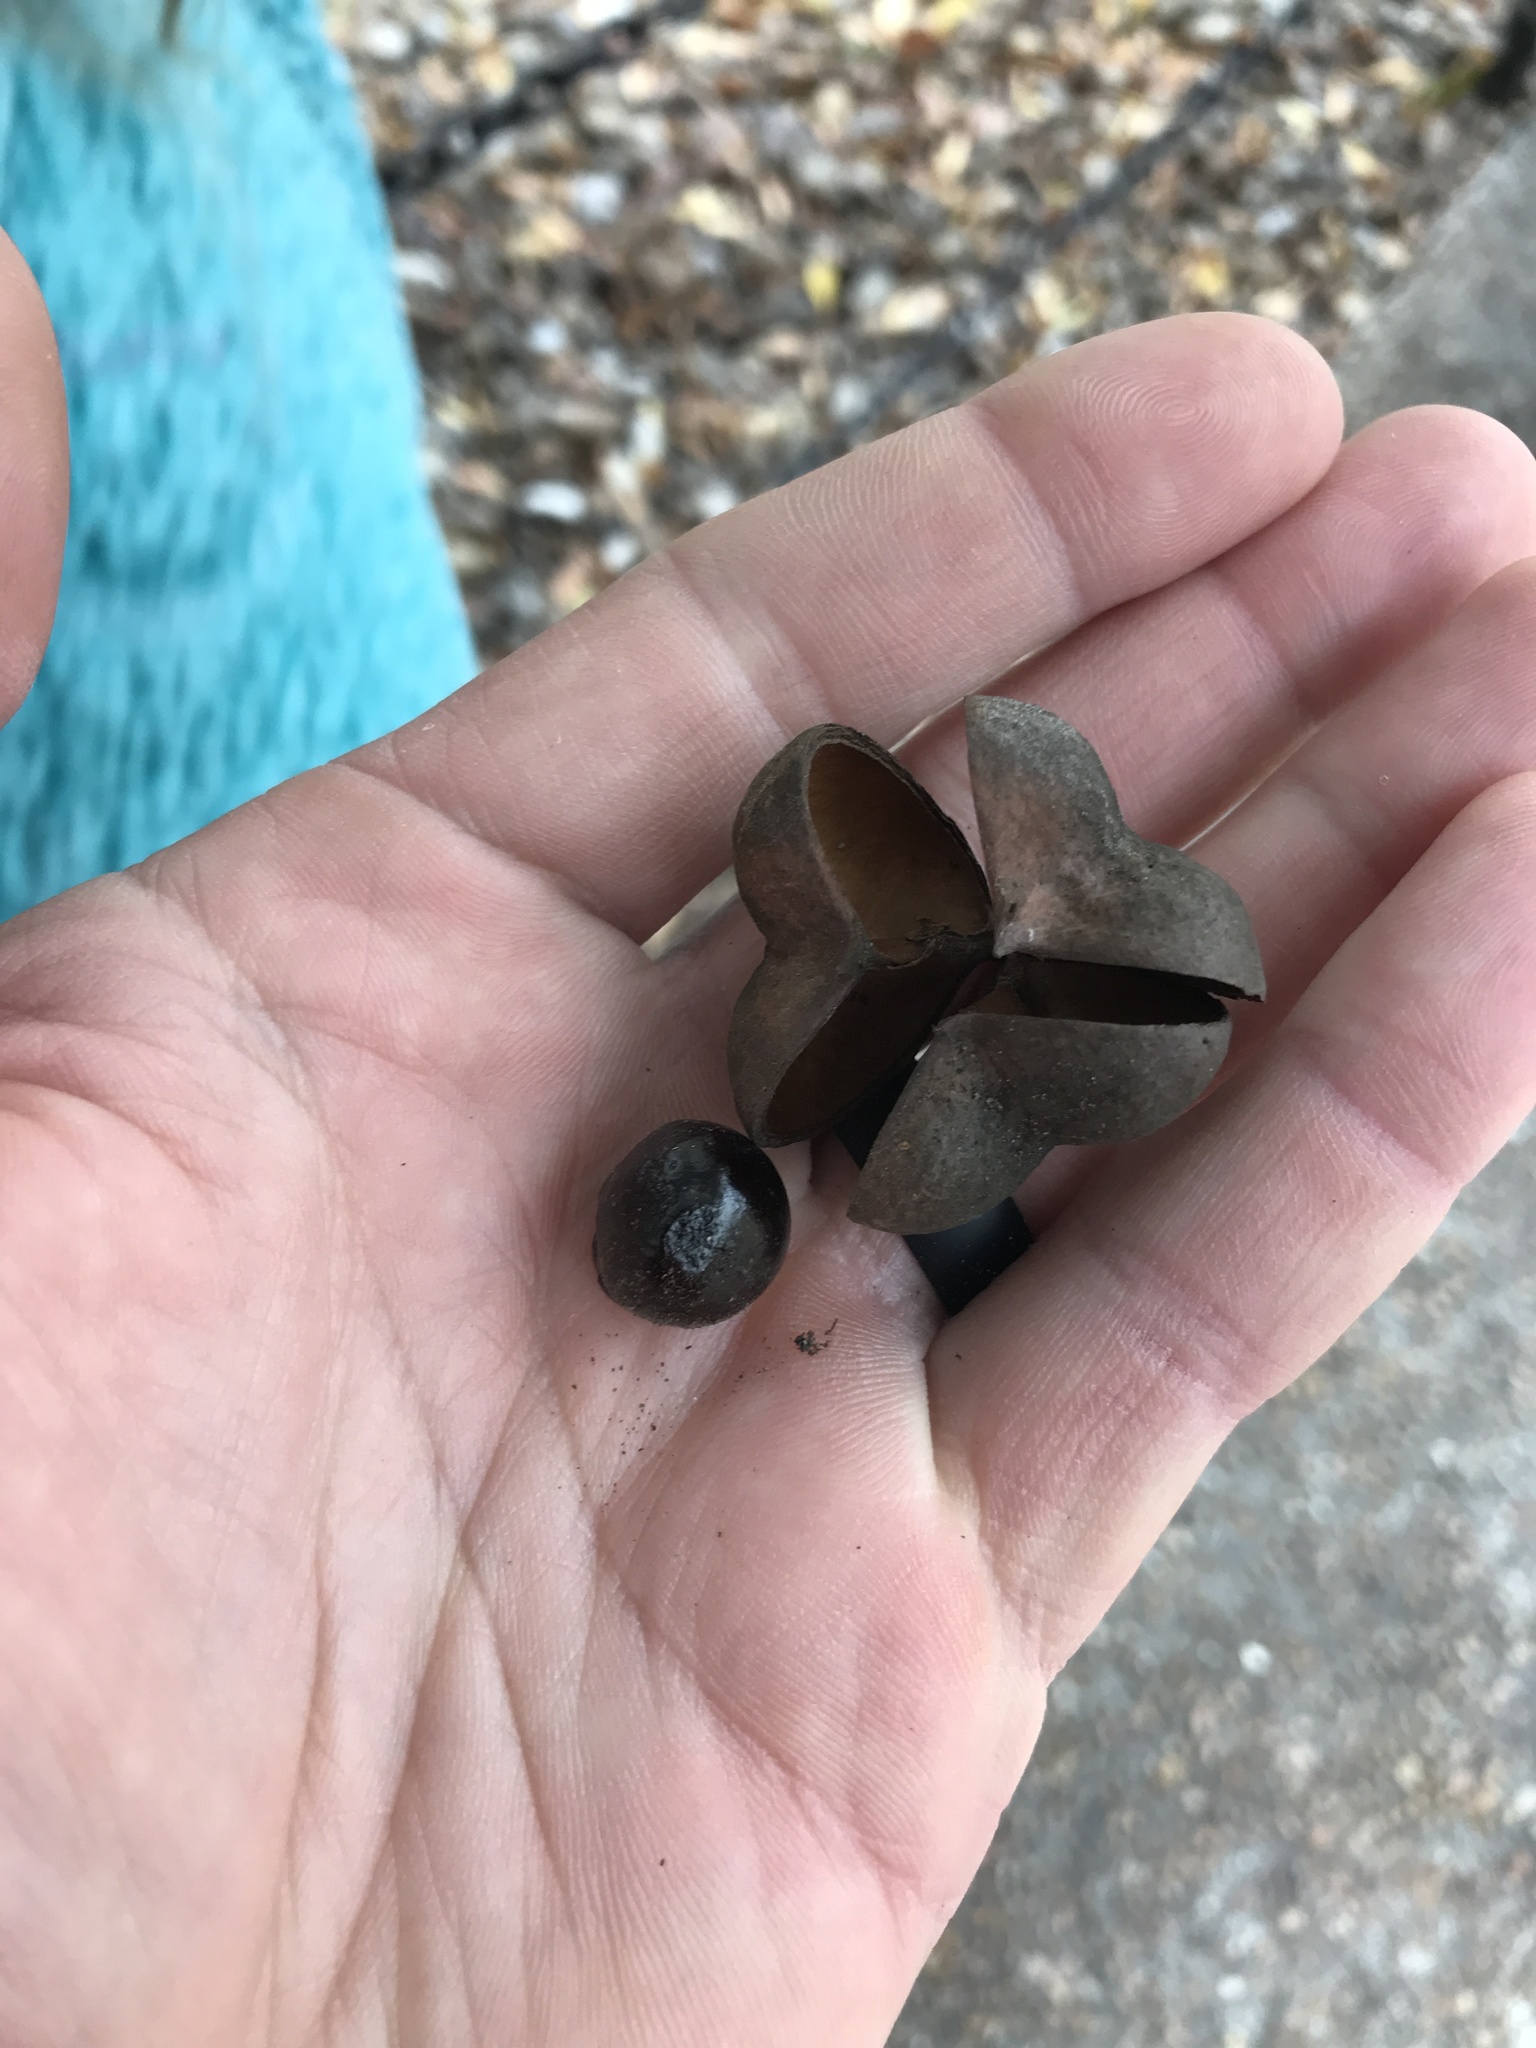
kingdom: Plantae
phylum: Tracheophyta
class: Magnoliopsida
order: Sapindales
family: Sapindaceae
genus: Ungnadia
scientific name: Ungnadia speciosa
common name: Texas-buckeye
